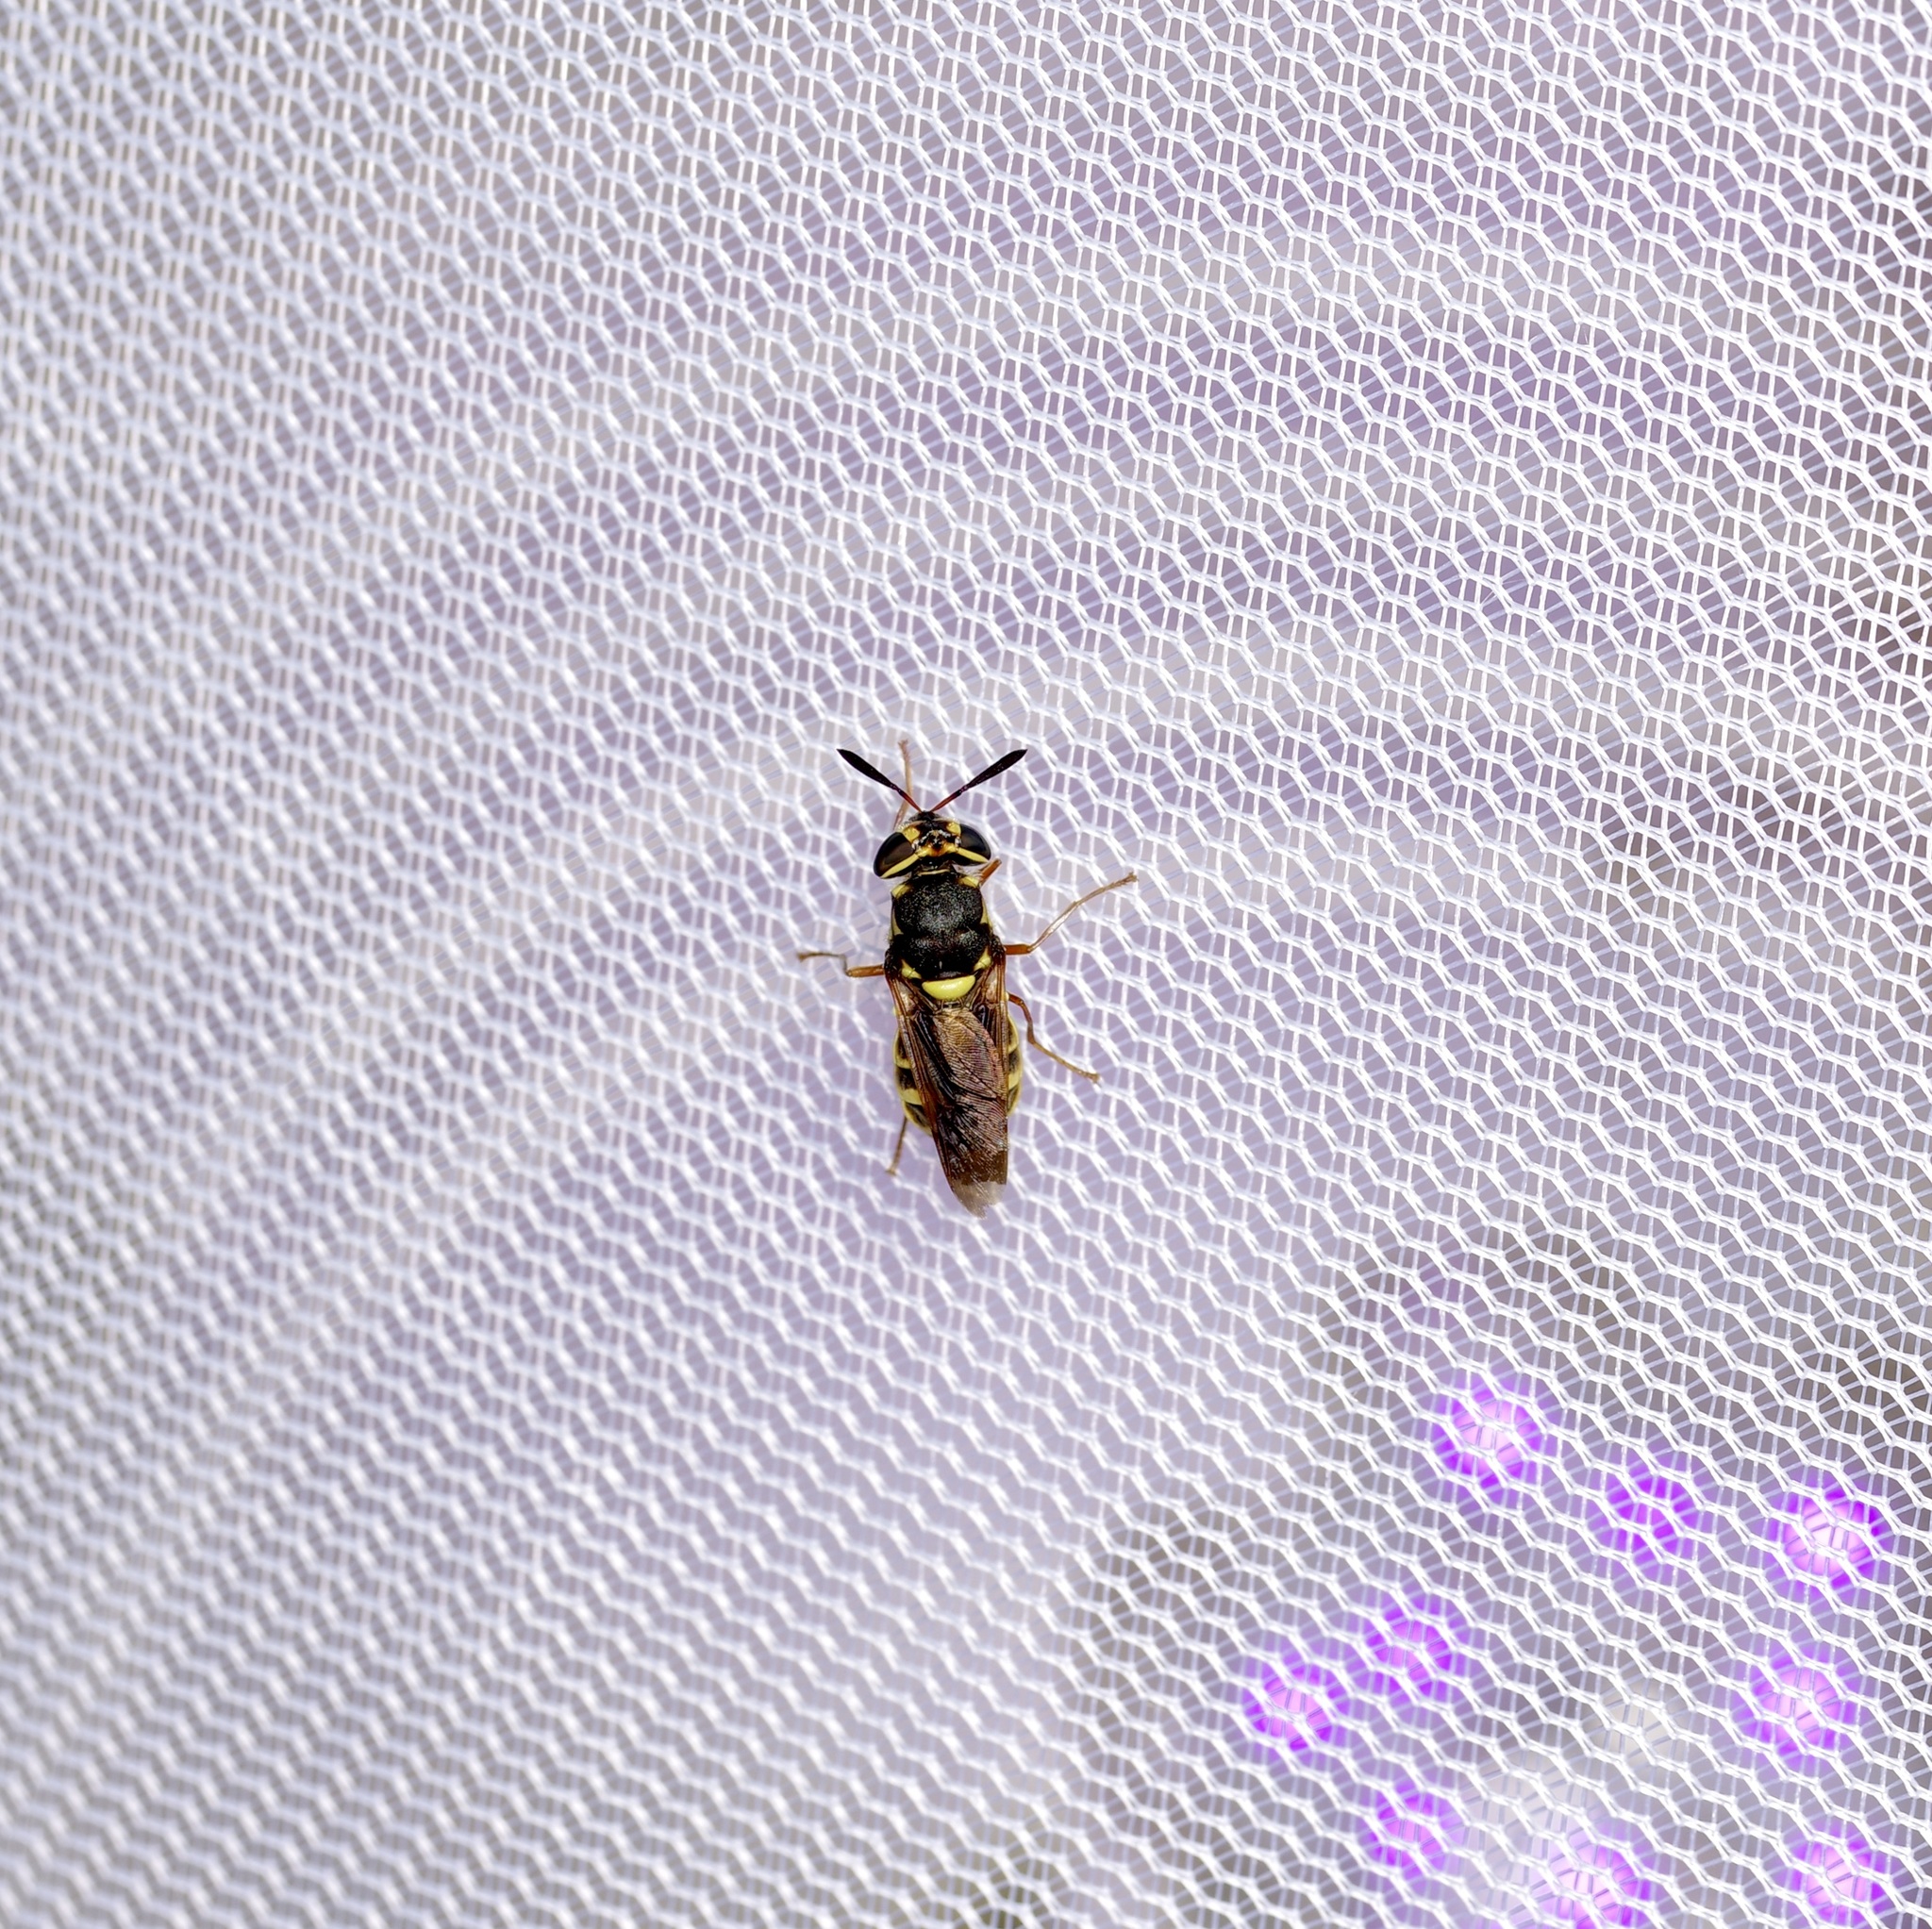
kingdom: Animalia
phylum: Arthropoda
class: Insecta
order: Diptera
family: Stratiomyidae
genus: Hoplitimyia
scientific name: Hoplitimyia constans
